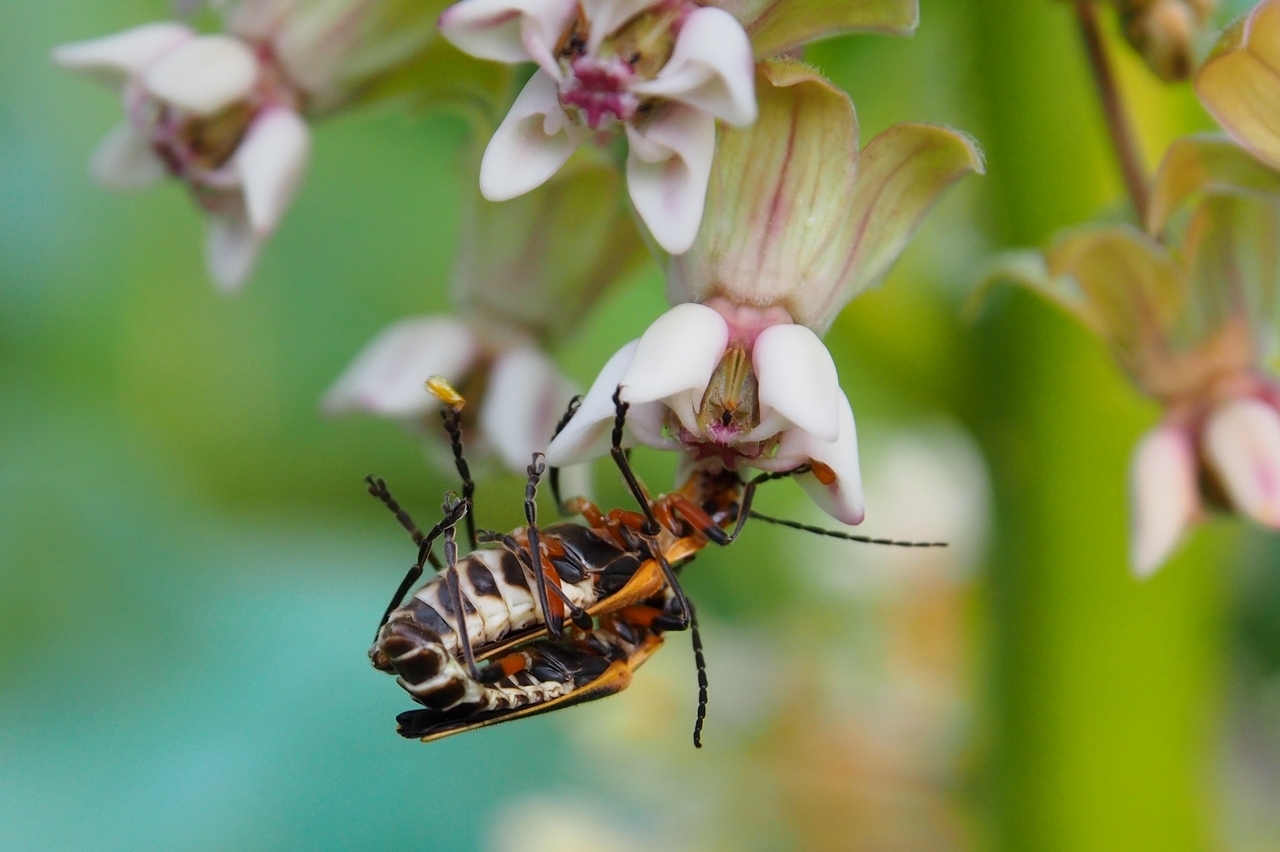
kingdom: Animalia
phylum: Arthropoda
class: Insecta
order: Coleoptera
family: Cantharidae
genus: Chauliognathus
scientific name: Chauliognathus marginatus
